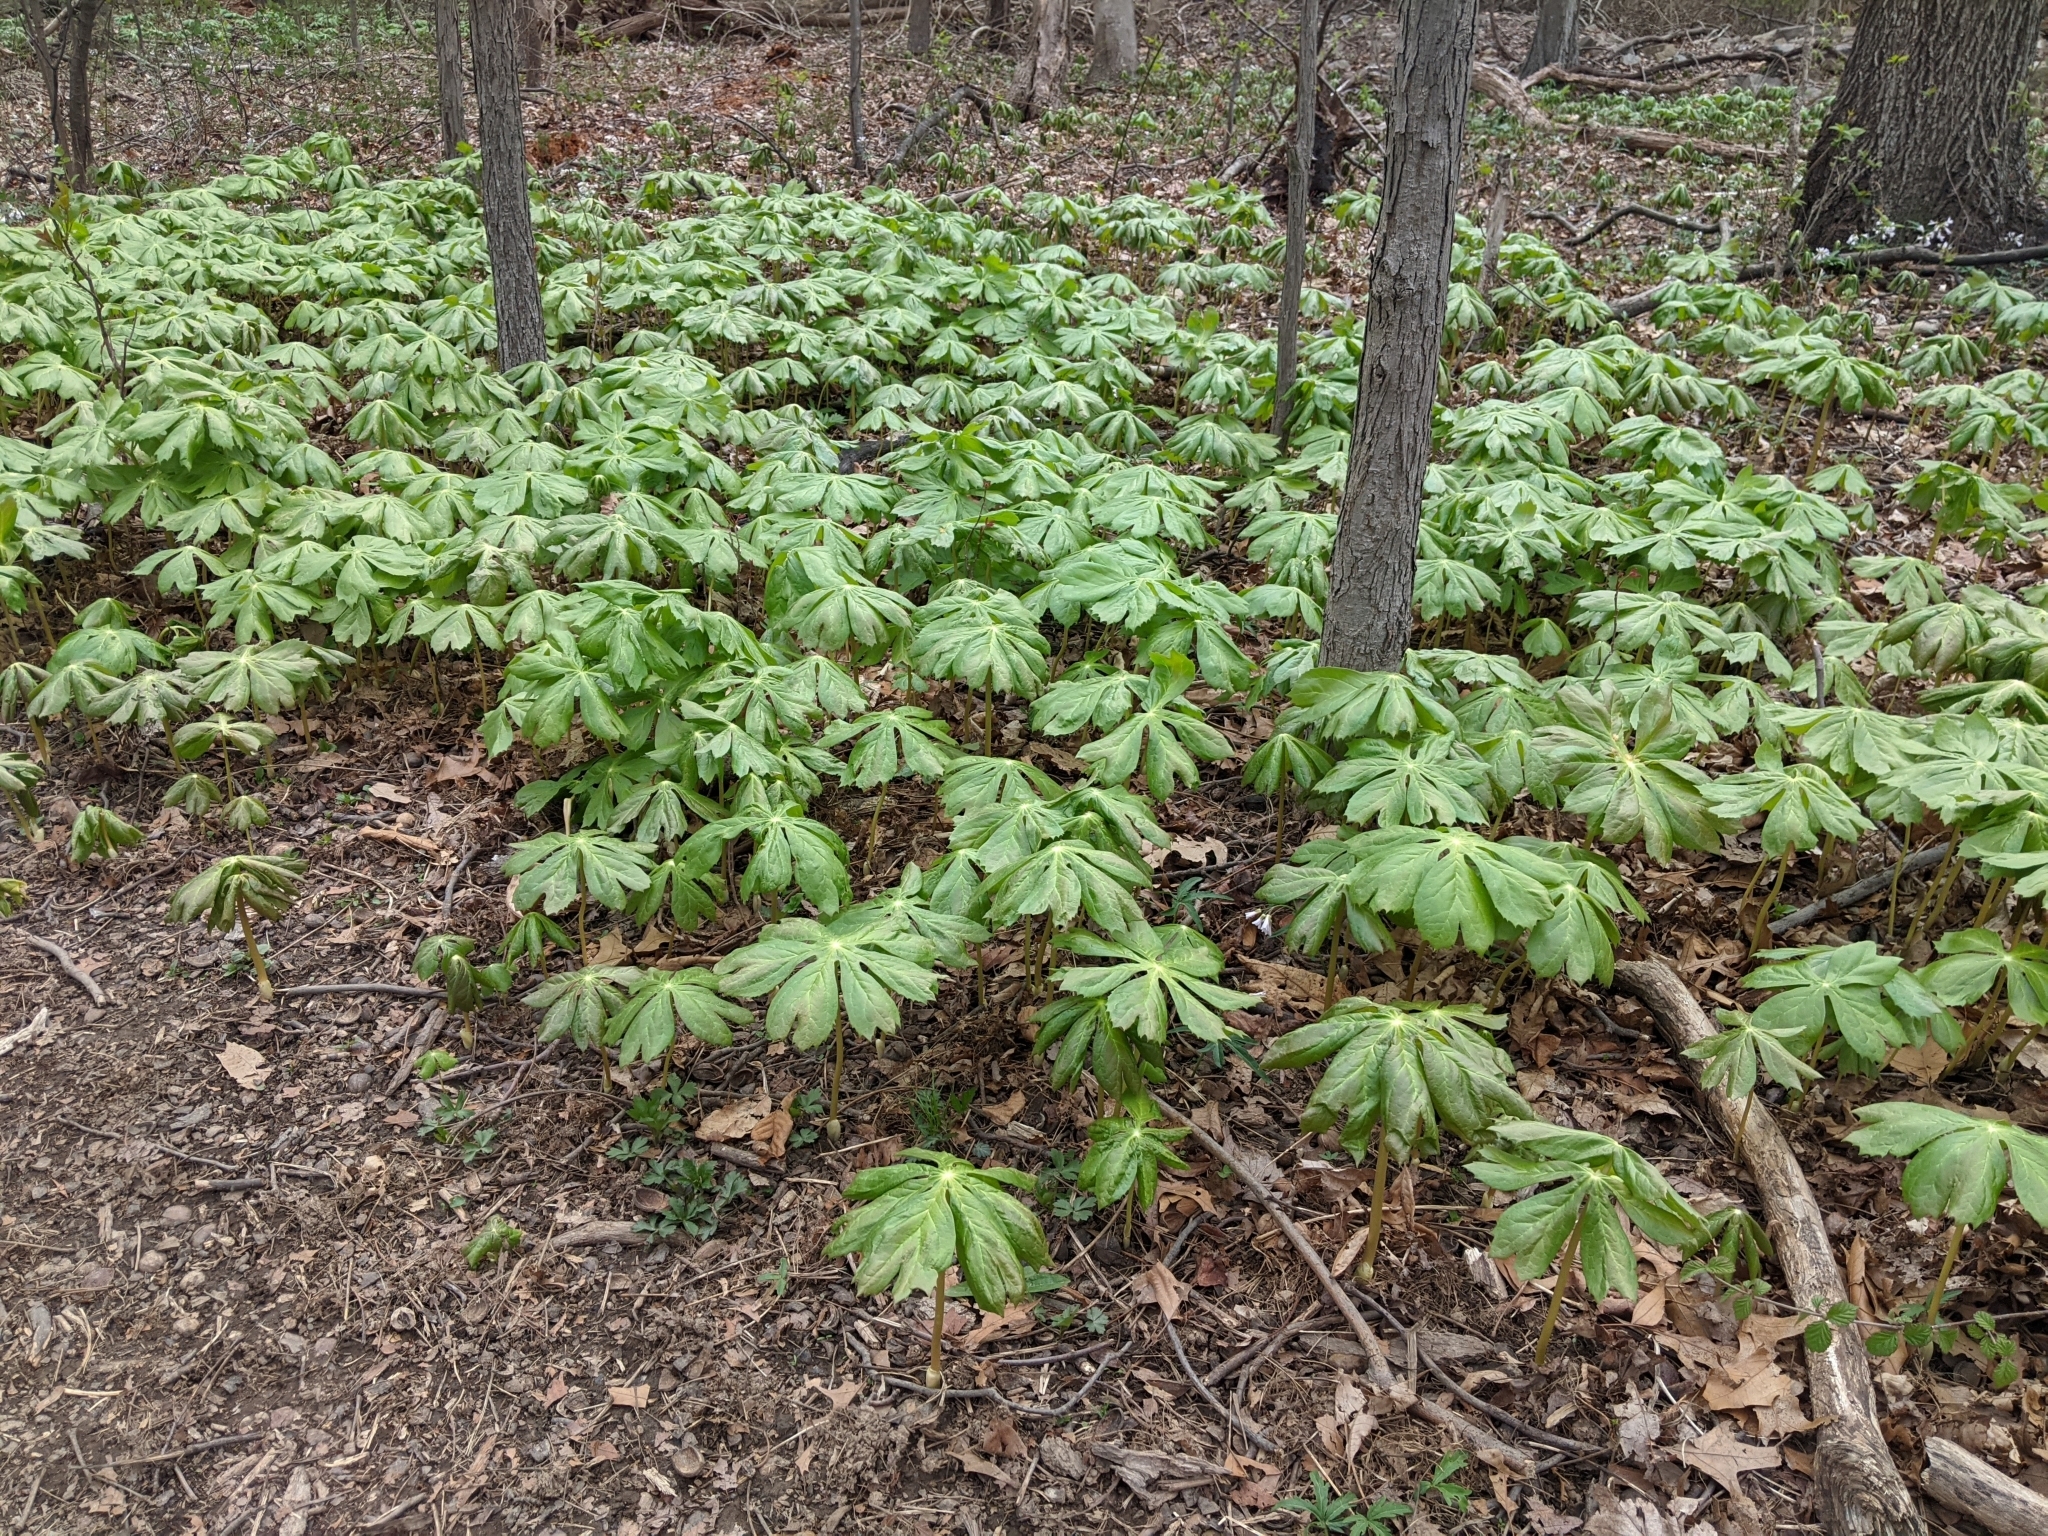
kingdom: Plantae
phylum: Tracheophyta
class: Magnoliopsida
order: Ranunculales
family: Berberidaceae
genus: Podophyllum
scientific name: Podophyllum peltatum
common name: Wild mandrake
